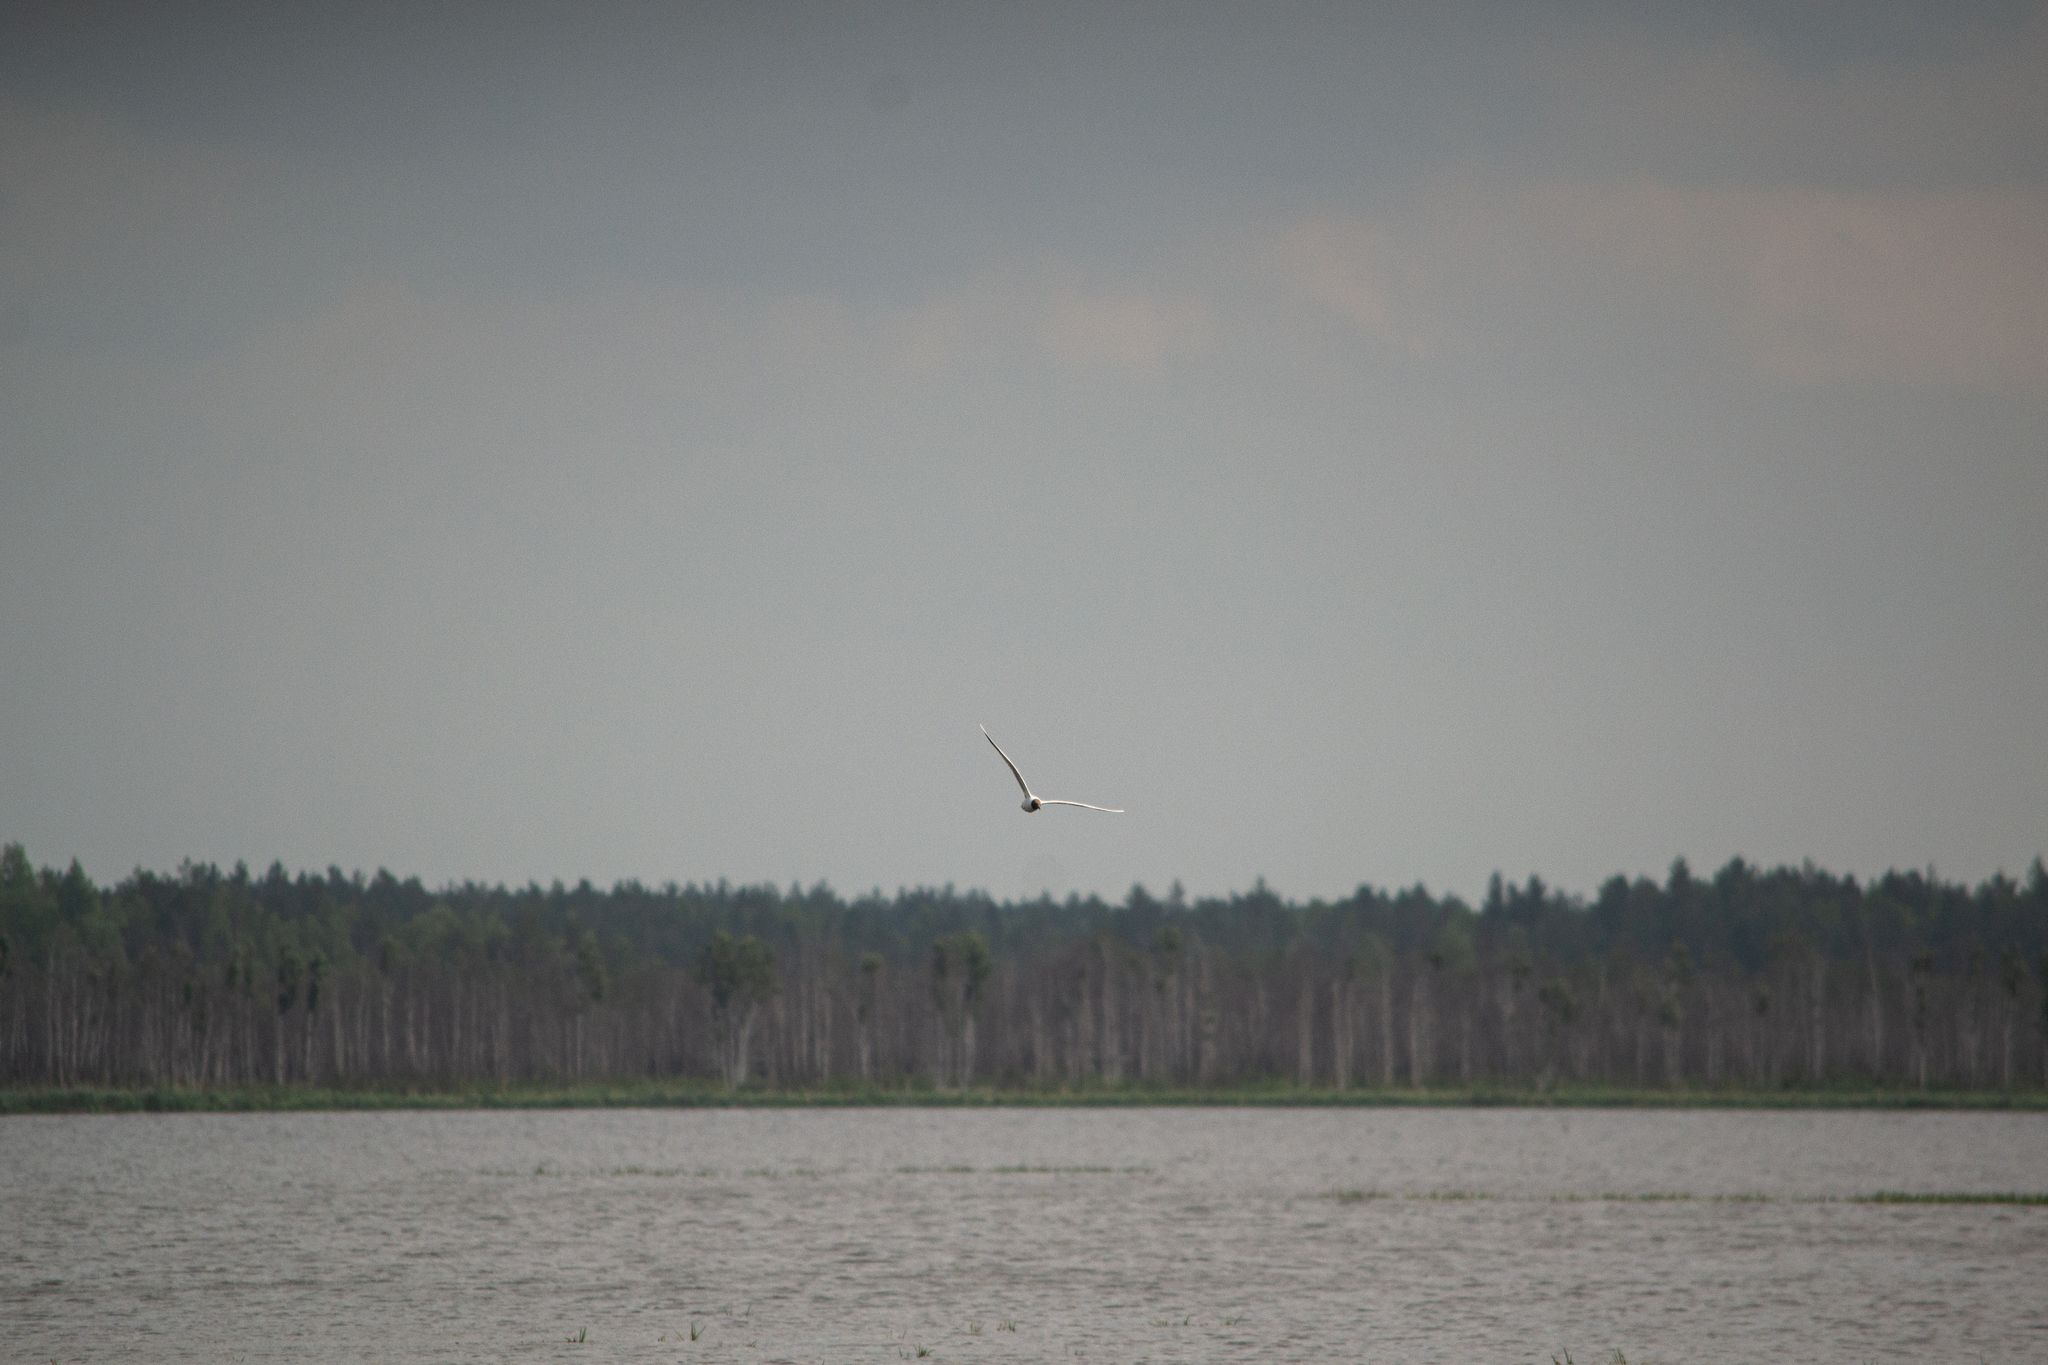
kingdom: Animalia
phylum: Chordata
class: Aves
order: Charadriiformes
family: Laridae
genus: Chroicocephalus
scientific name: Chroicocephalus ridibundus
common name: Black-headed gull
